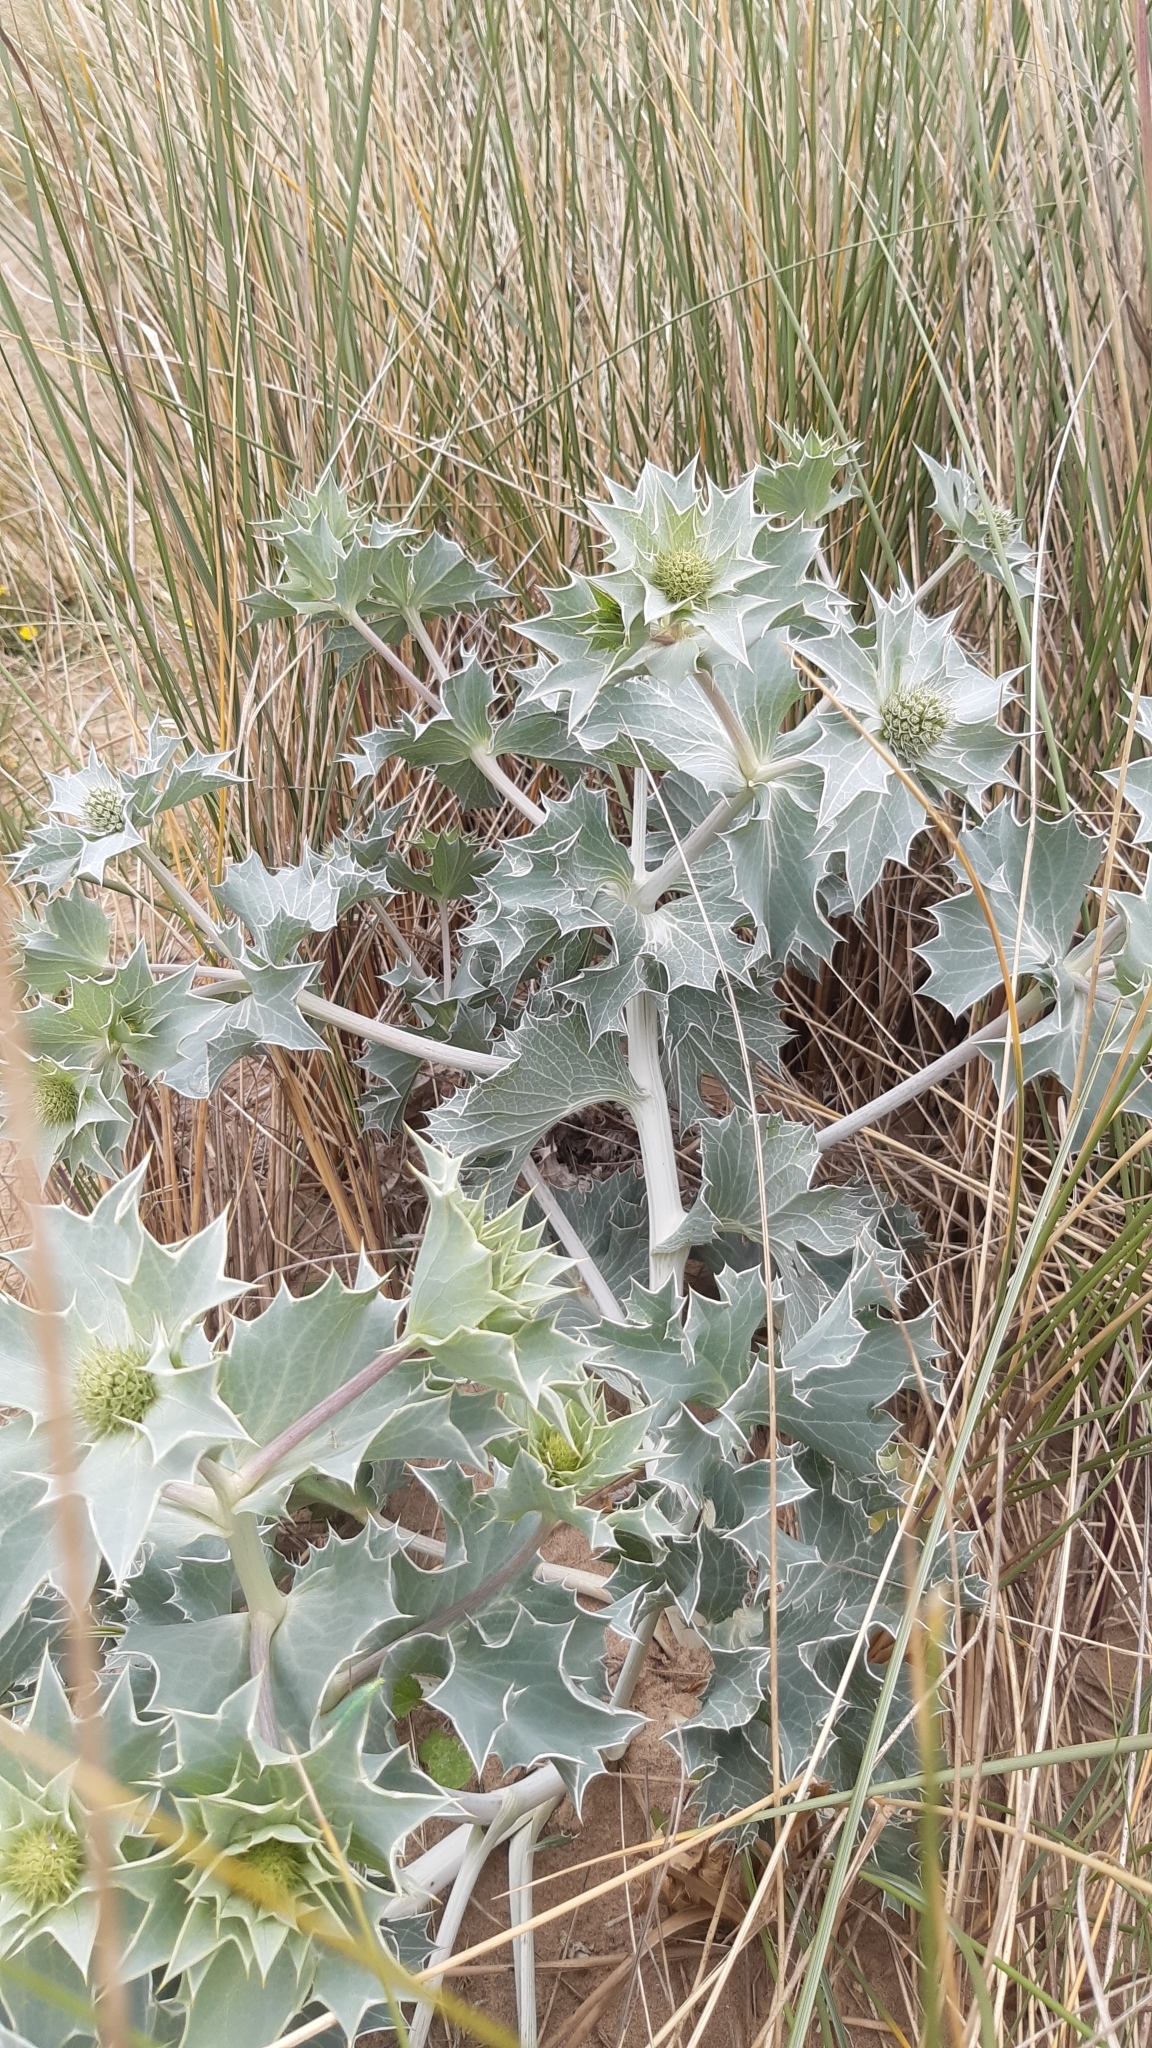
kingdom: Plantae
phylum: Tracheophyta
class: Magnoliopsida
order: Apiales
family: Apiaceae
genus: Eryngium
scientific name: Eryngium maritimum
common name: Sea-holly
